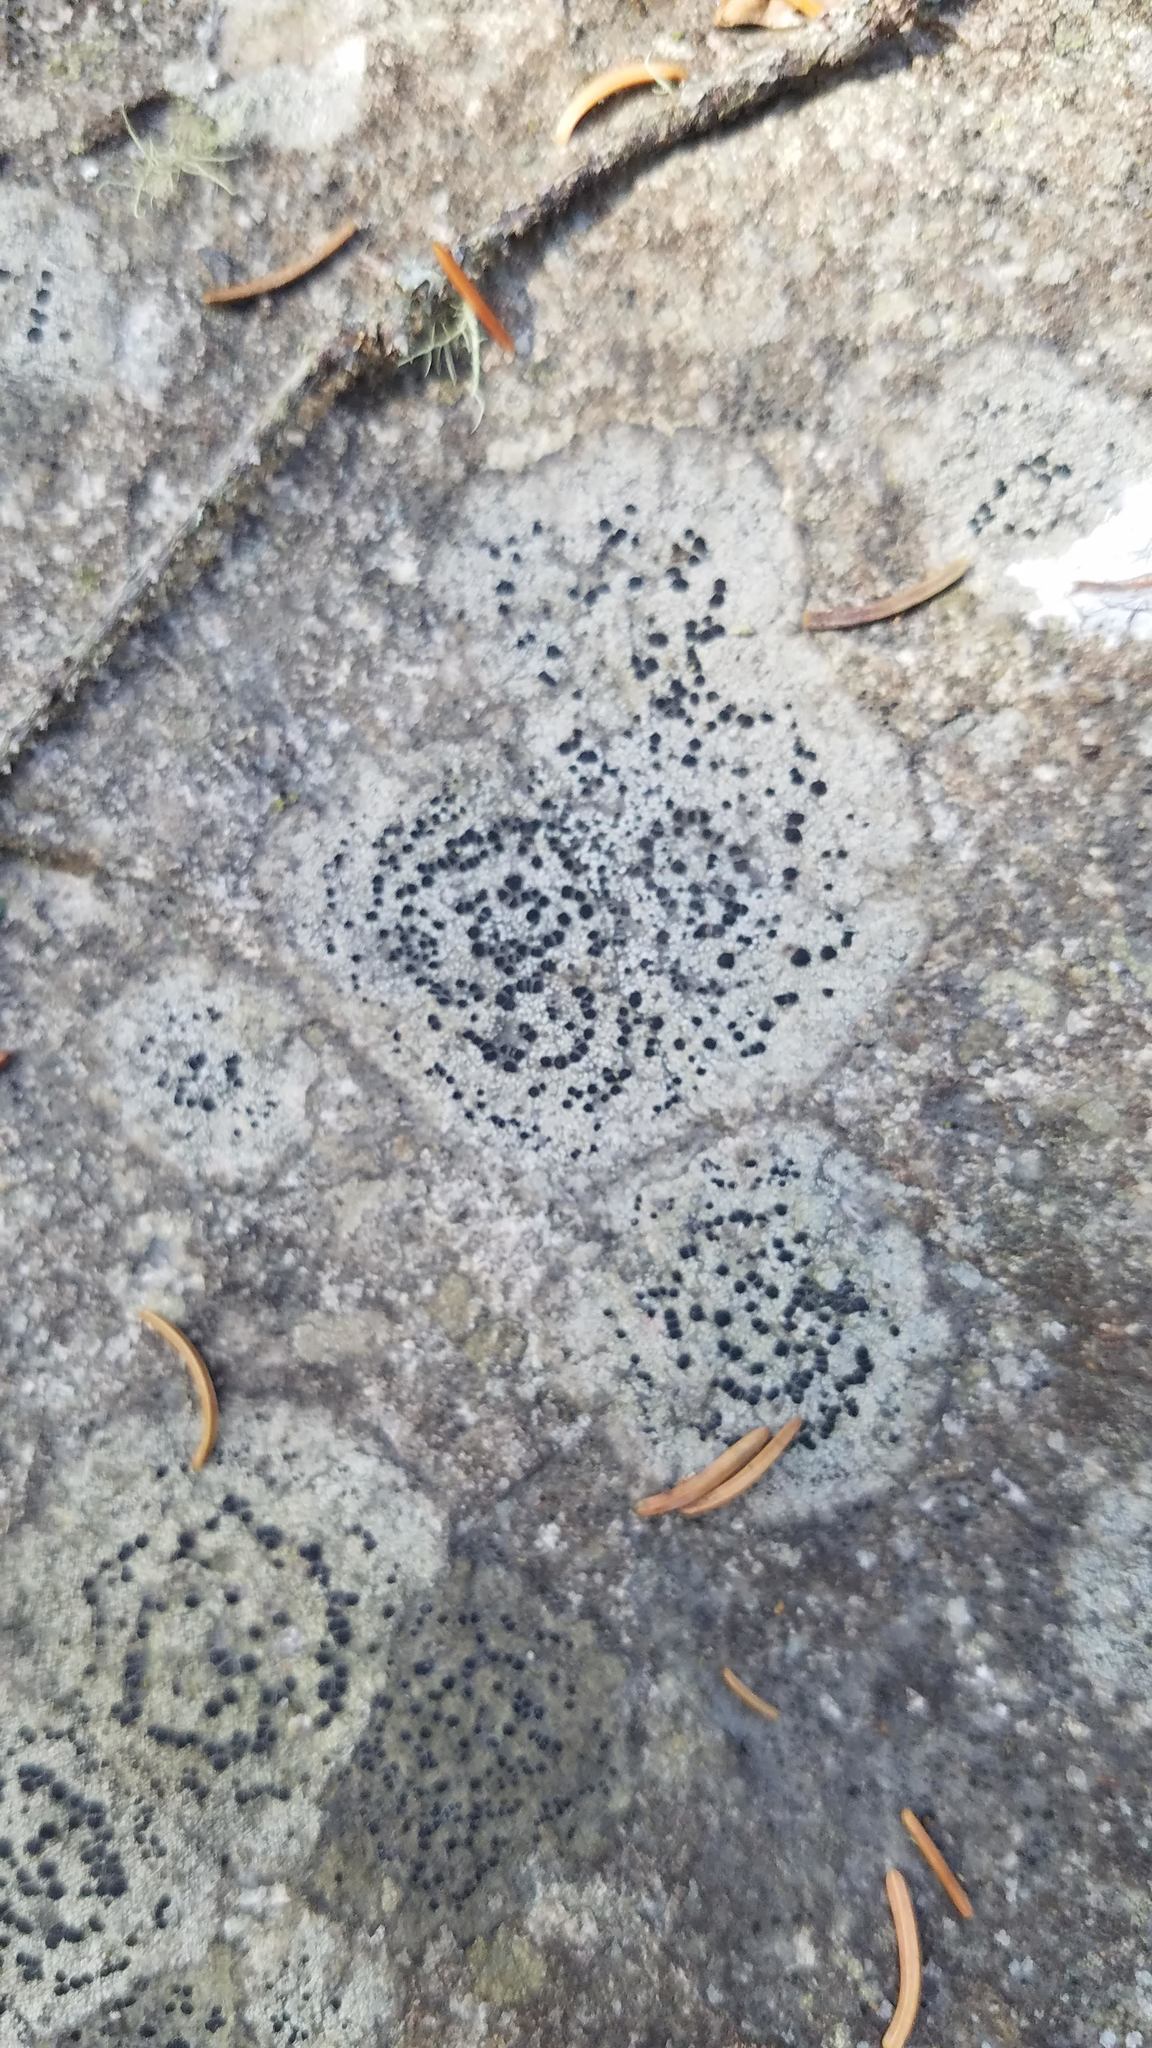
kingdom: Fungi
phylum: Ascomycota
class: Lecanoromycetes
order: Lecideales
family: Lecideaceae
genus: Porpidia
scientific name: Porpidia crustulata
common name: Concentric boulder lichen
